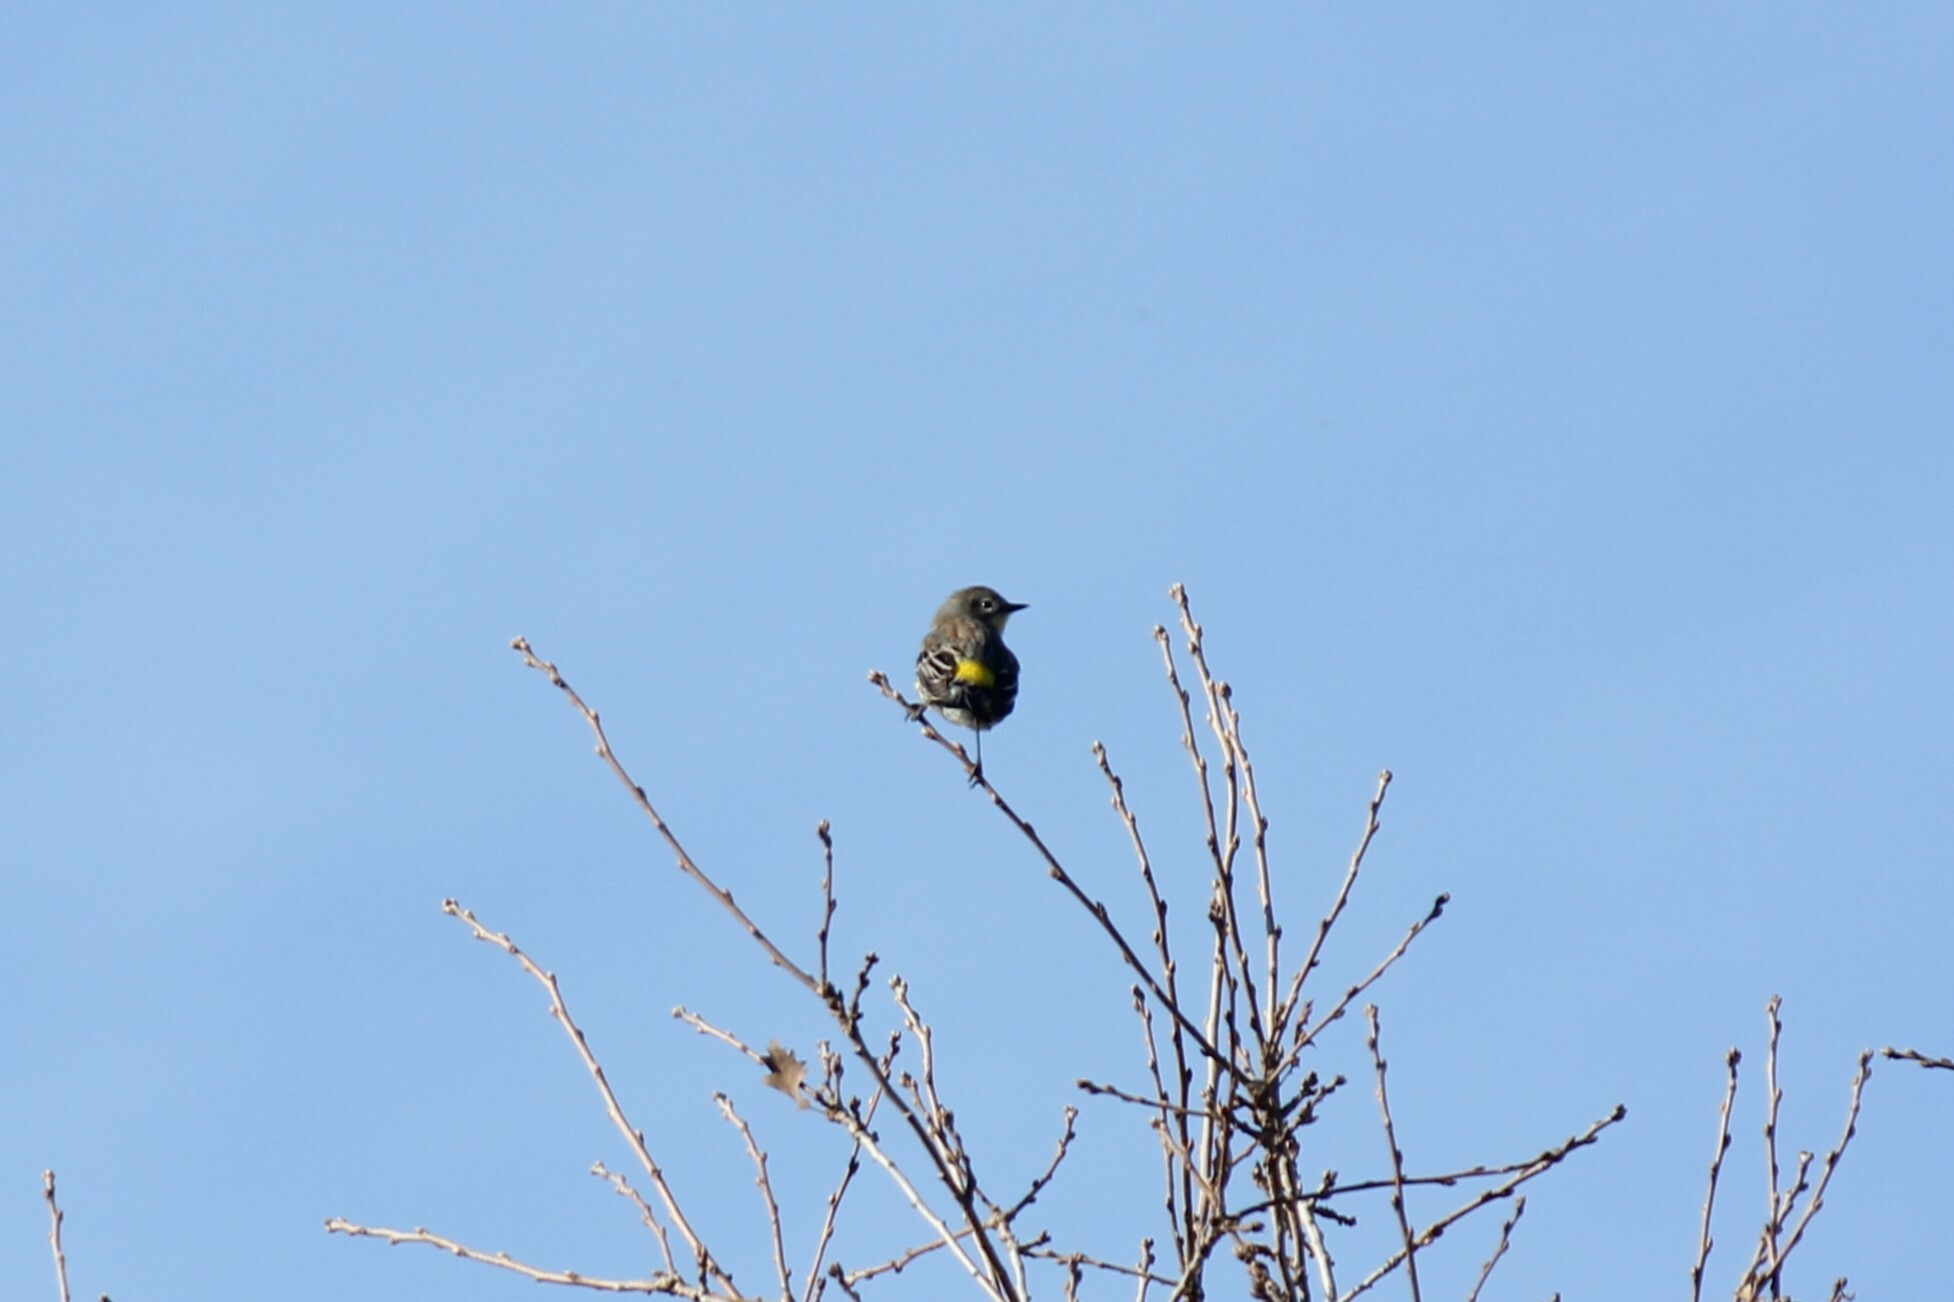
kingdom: Animalia
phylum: Chordata
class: Aves
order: Passeriformes
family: Parulidae
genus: Setophaga
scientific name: Setophaga coronata
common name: Myrtle warbler
